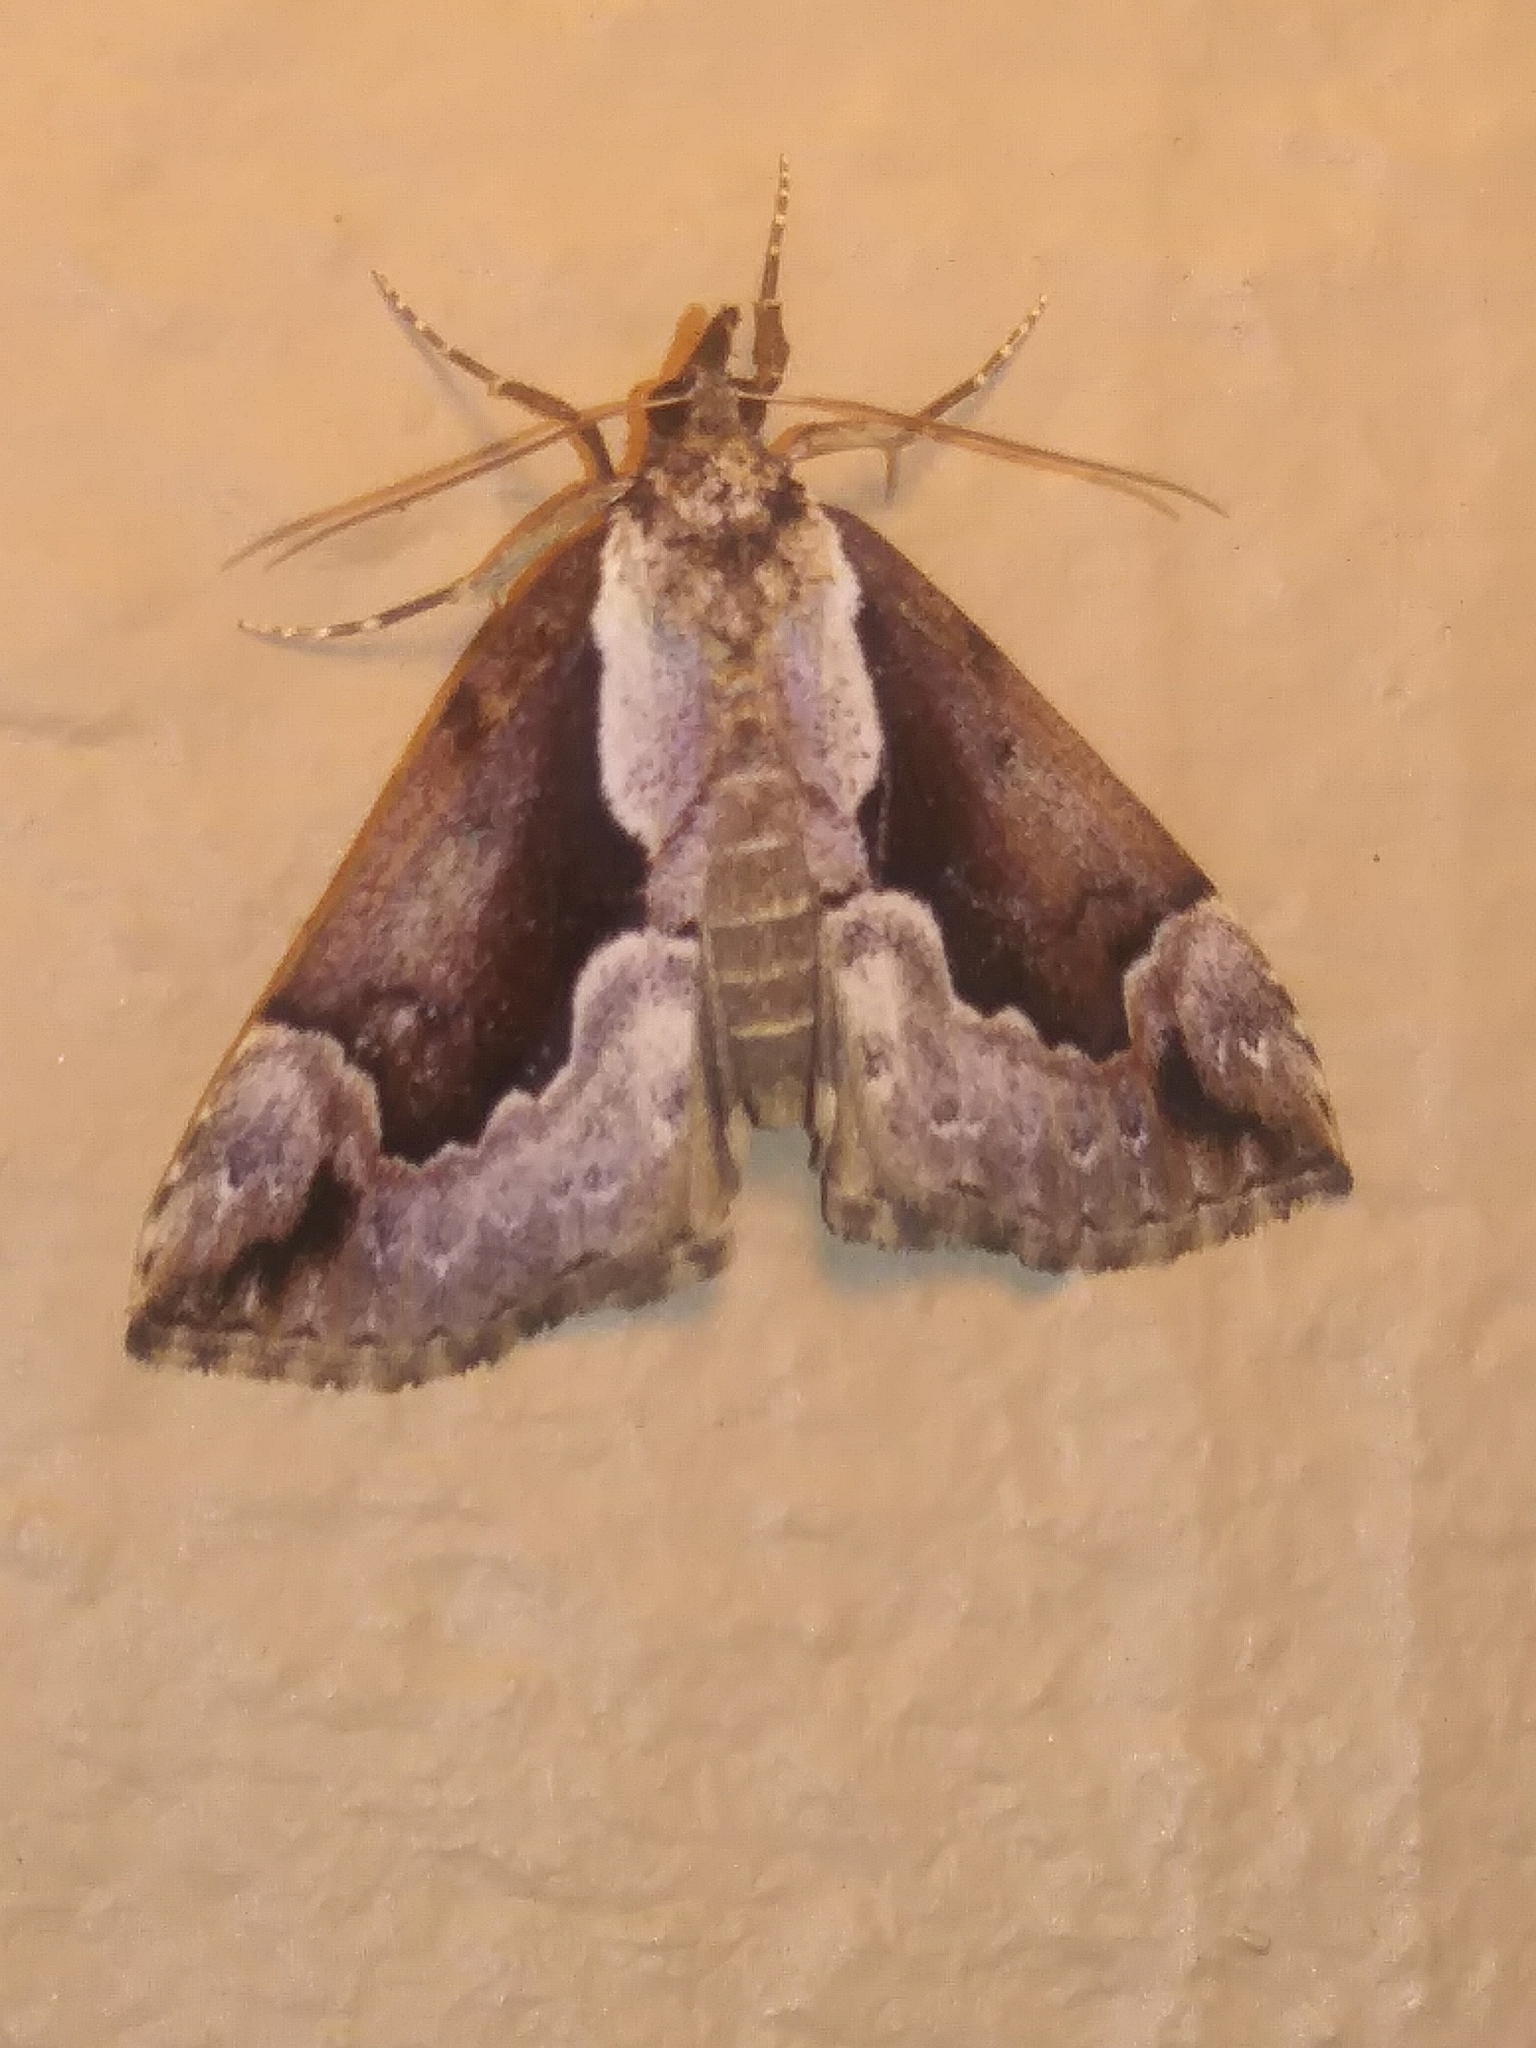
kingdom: Animalia
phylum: Arthropoda
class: Insecta
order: Lepidoptera
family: Erebidae
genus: Hypena
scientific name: Hypena baltimoralis
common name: Baltimore snout
